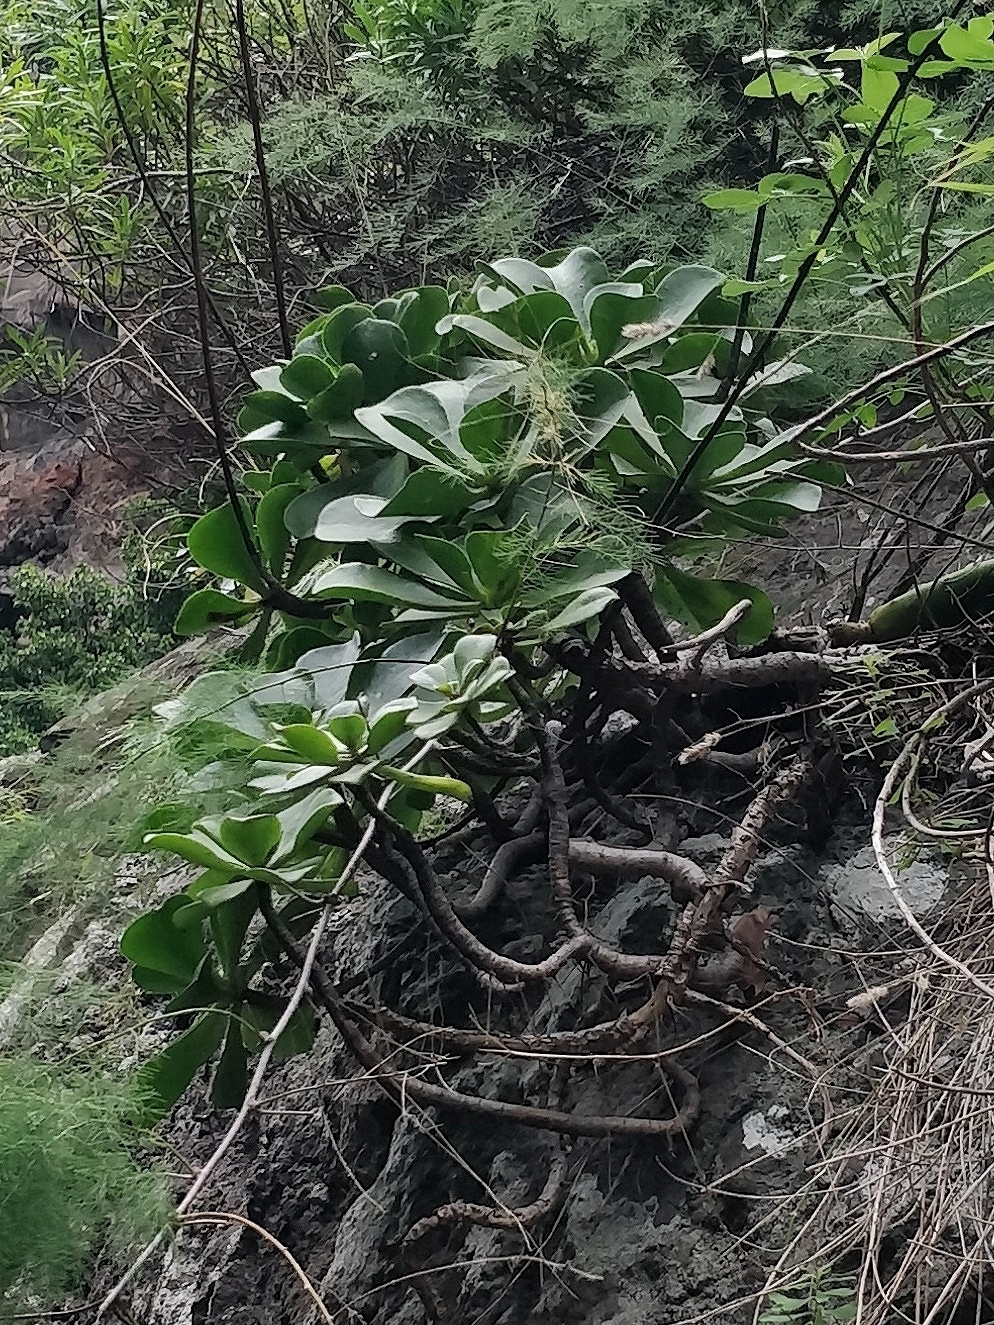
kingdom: Plantae
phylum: Tracheophyta
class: Magnoliopsida
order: Saxifragales
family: Crassulaceae
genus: Aeonium
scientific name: Aeonium glutinosum
